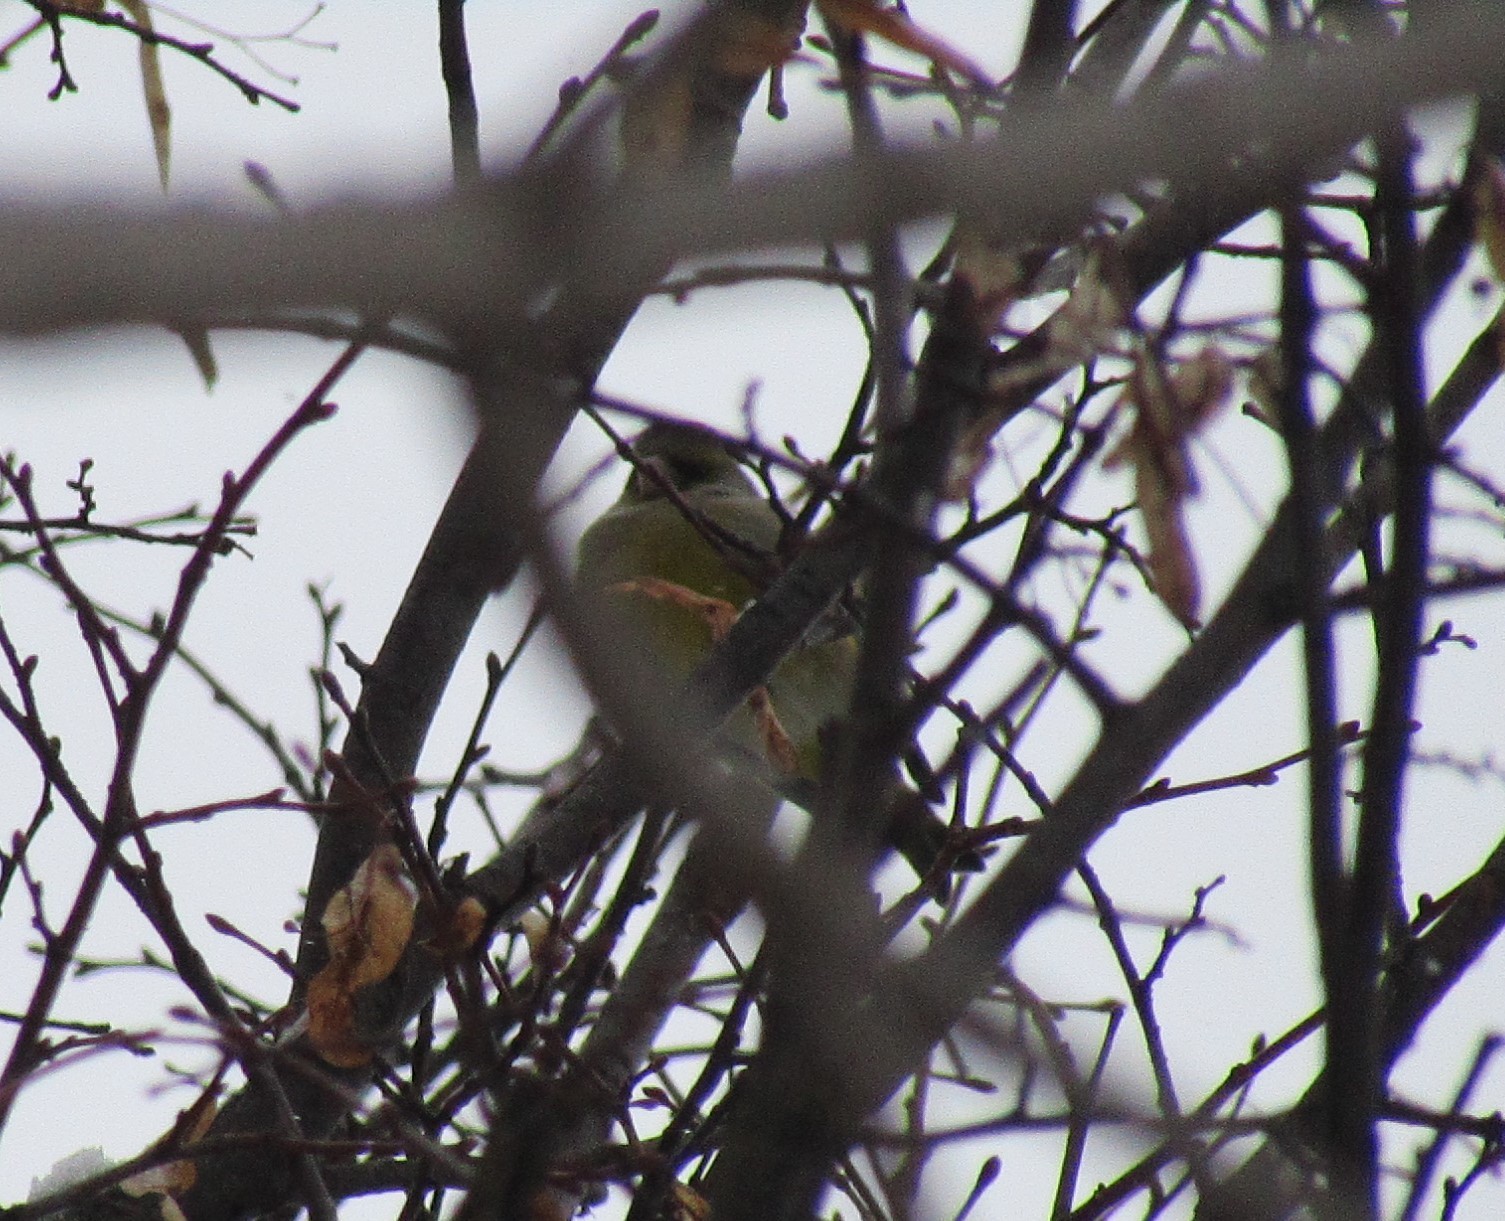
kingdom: Plantae
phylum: Tracheophyta
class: Liliopsida
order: Poales
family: Poaceae
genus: Chloris
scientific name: Chloris chloris
